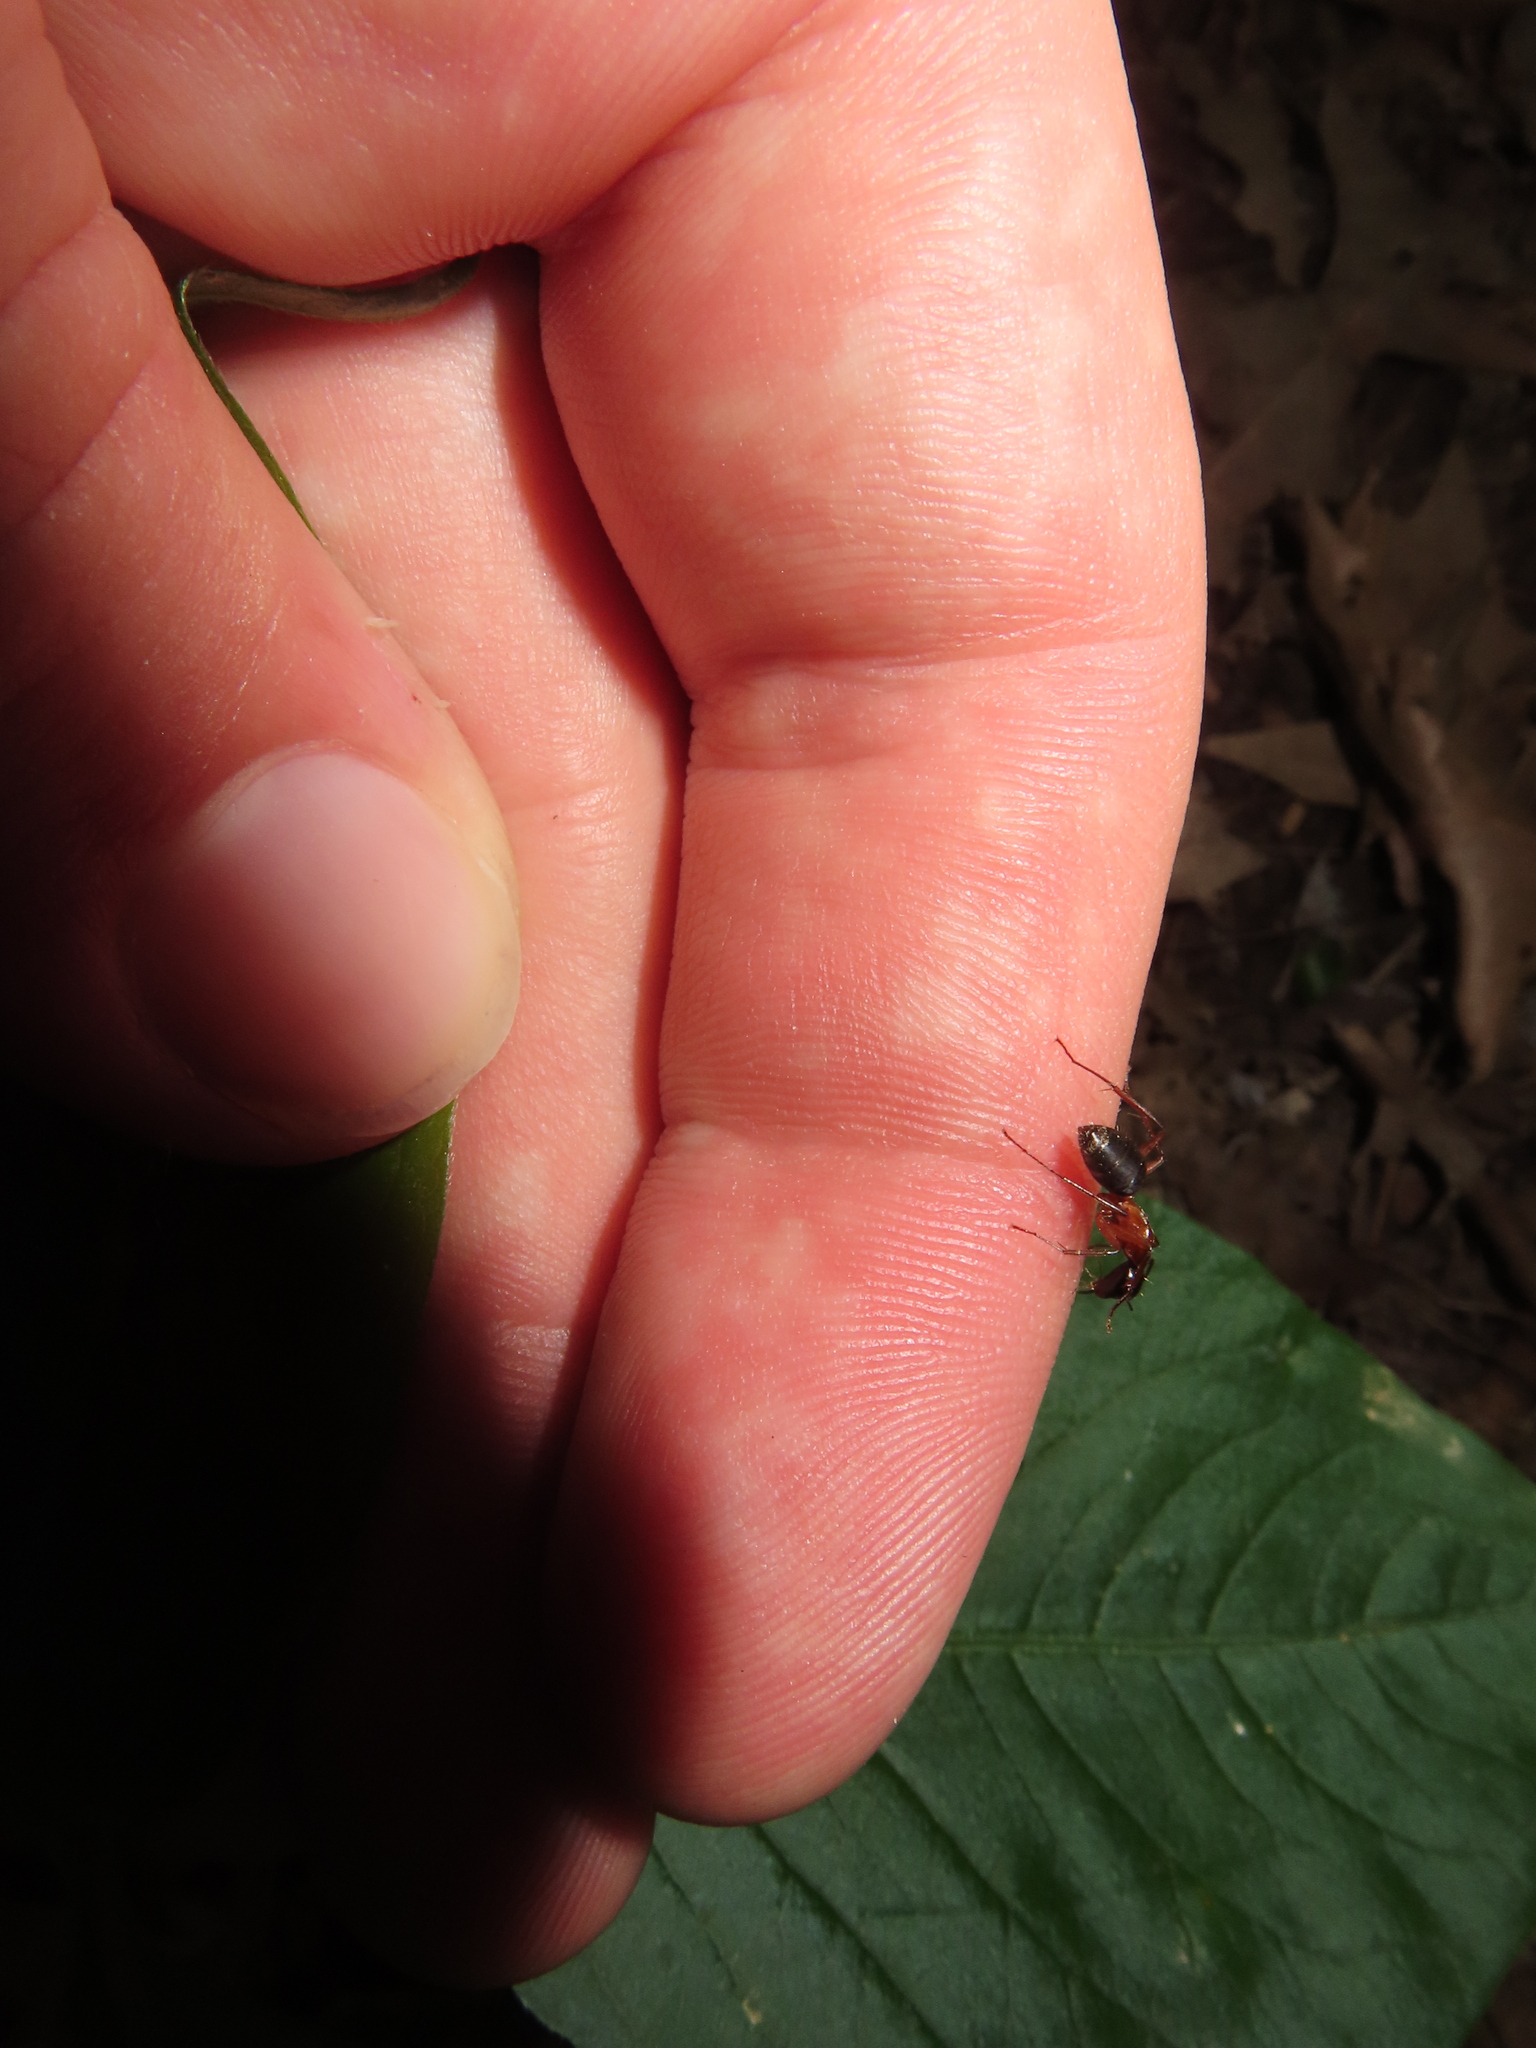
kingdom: Animalia
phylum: Arthropoda
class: Insecta
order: Hymenoptera
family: Formicidae
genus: Camponotus
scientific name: Camponotus chromaiodes
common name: Red carpenter ant
